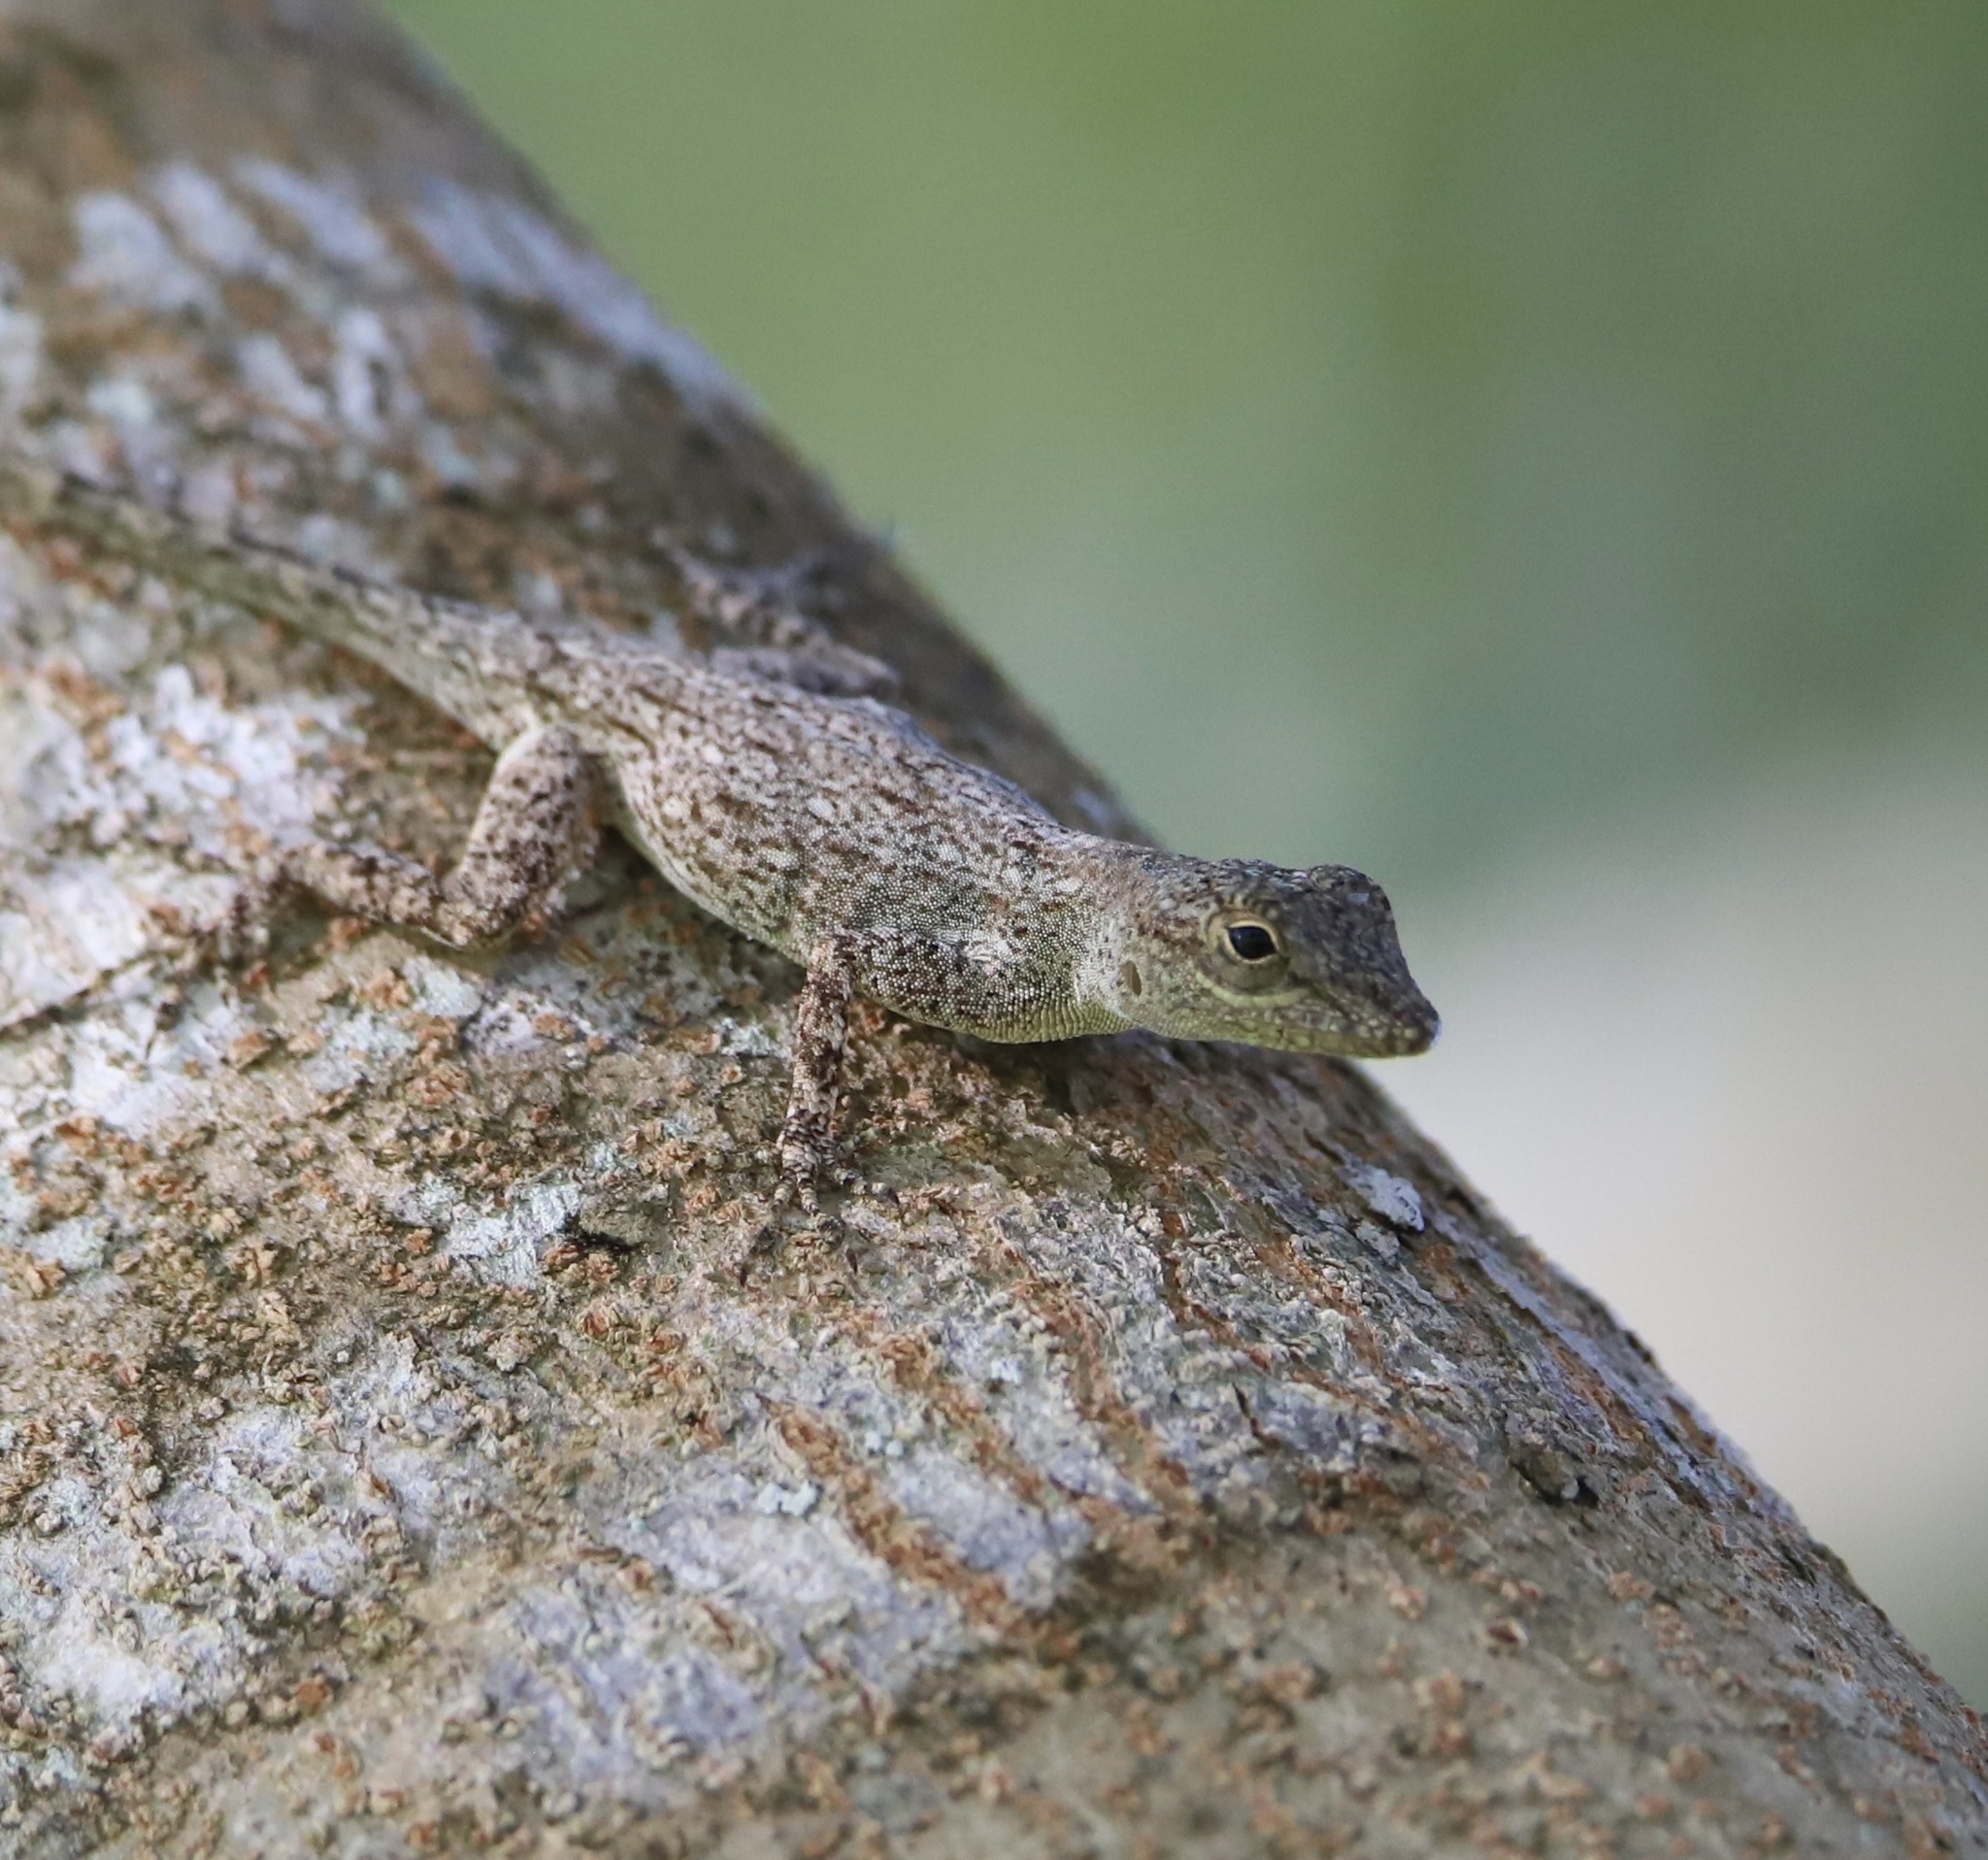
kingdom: Animalia
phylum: Chordata
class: Squamata
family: Dactyloidae
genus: Anolis
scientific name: Anolis distichus
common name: Bark anole
